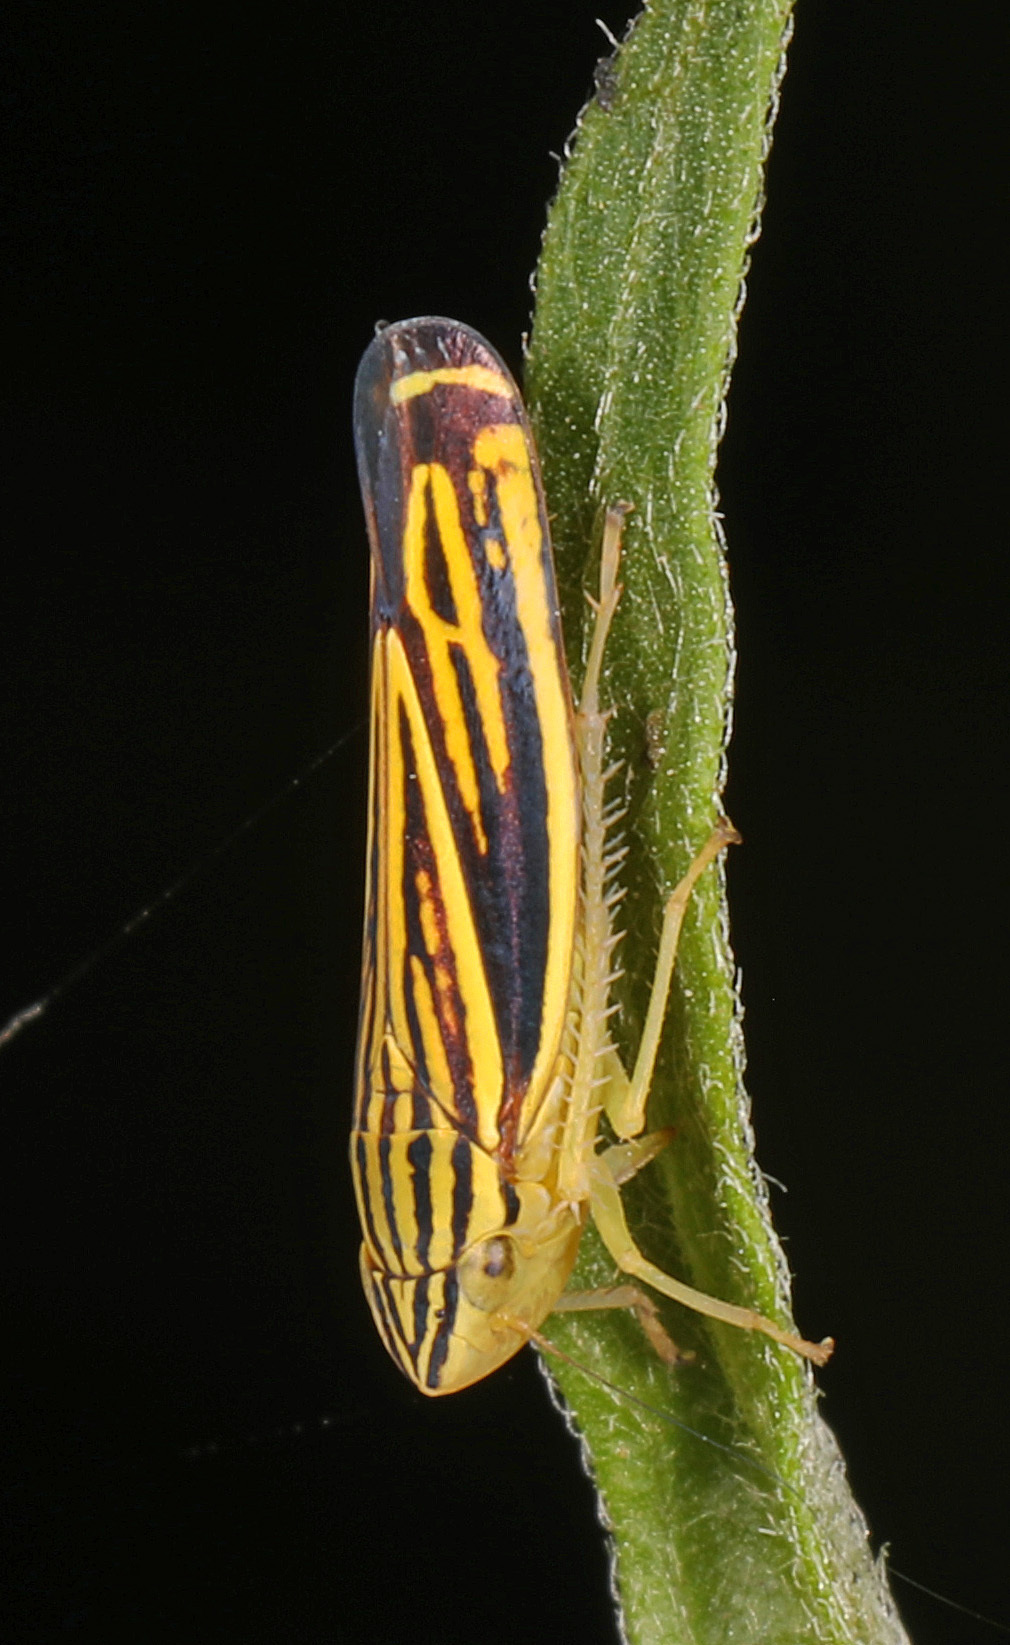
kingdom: Animalia
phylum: Arthropoda
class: Insecta
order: Hemiptera
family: Cicadellidae
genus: Sibovia
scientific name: Sibovia occatoria
